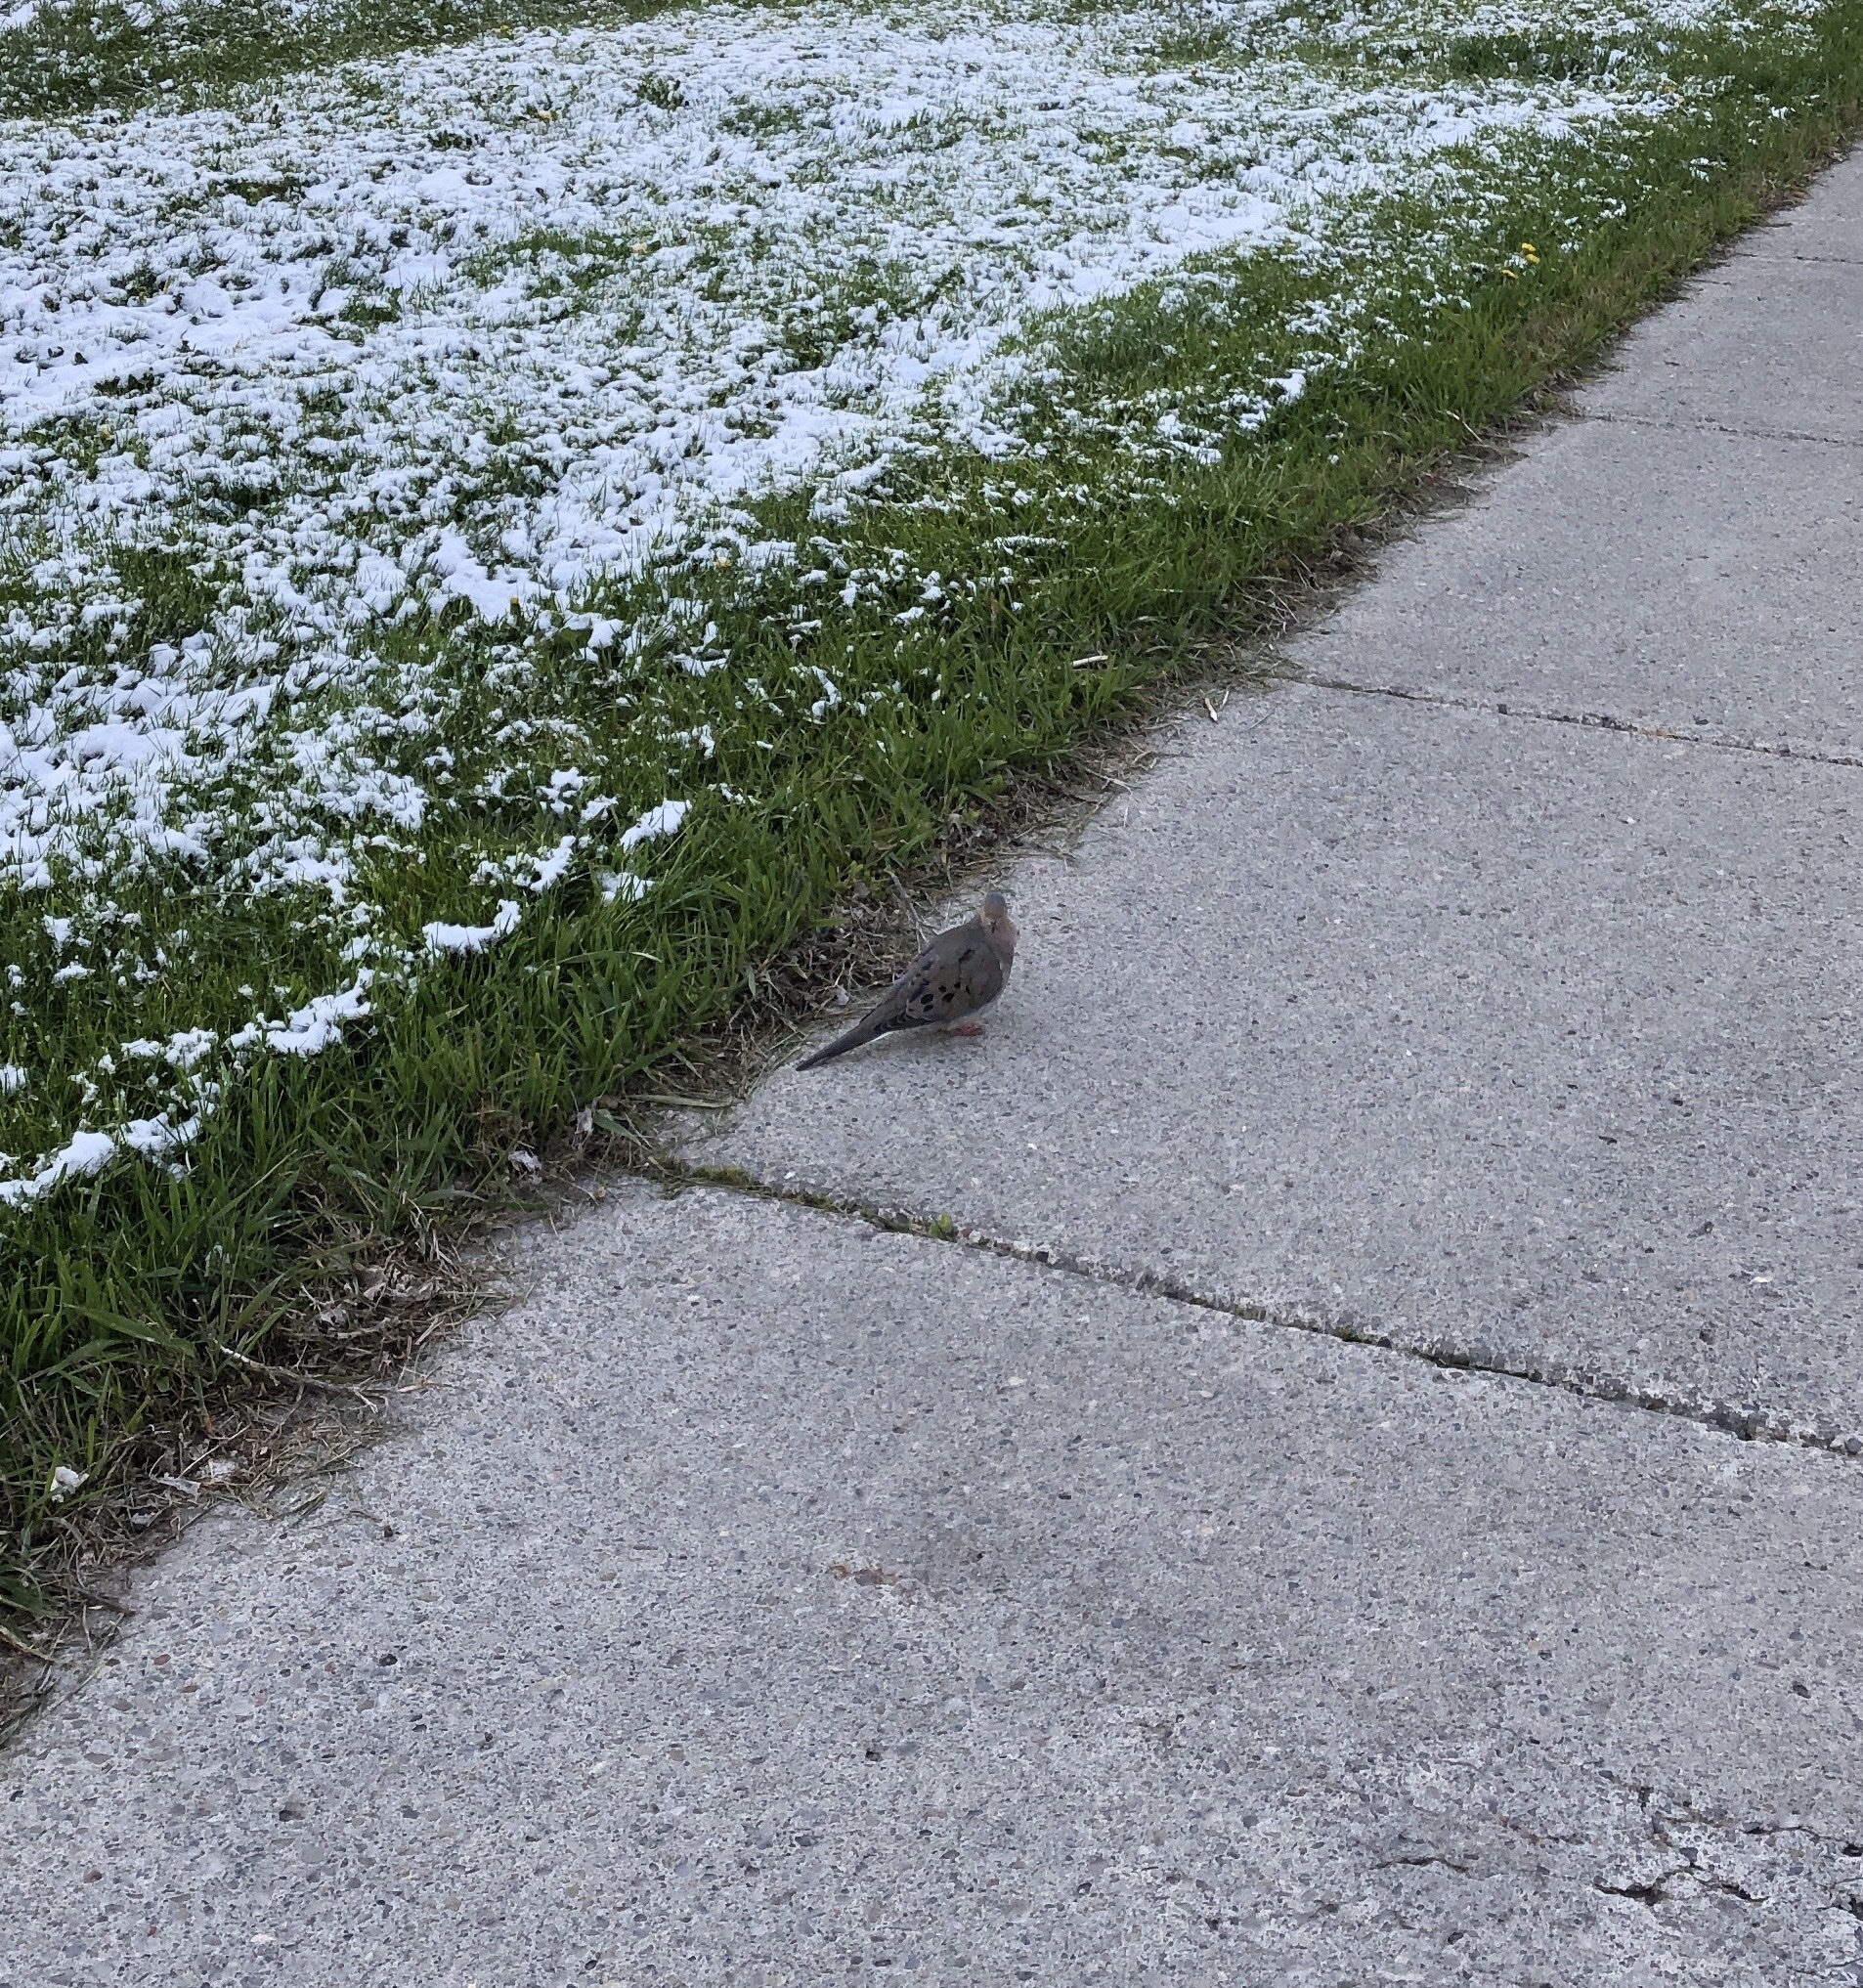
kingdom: Animalia
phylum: Chordata
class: Aves
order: Columbiformes
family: Columbidae
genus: Zenaida
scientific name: Zenaida macroura
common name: Mourning dove
